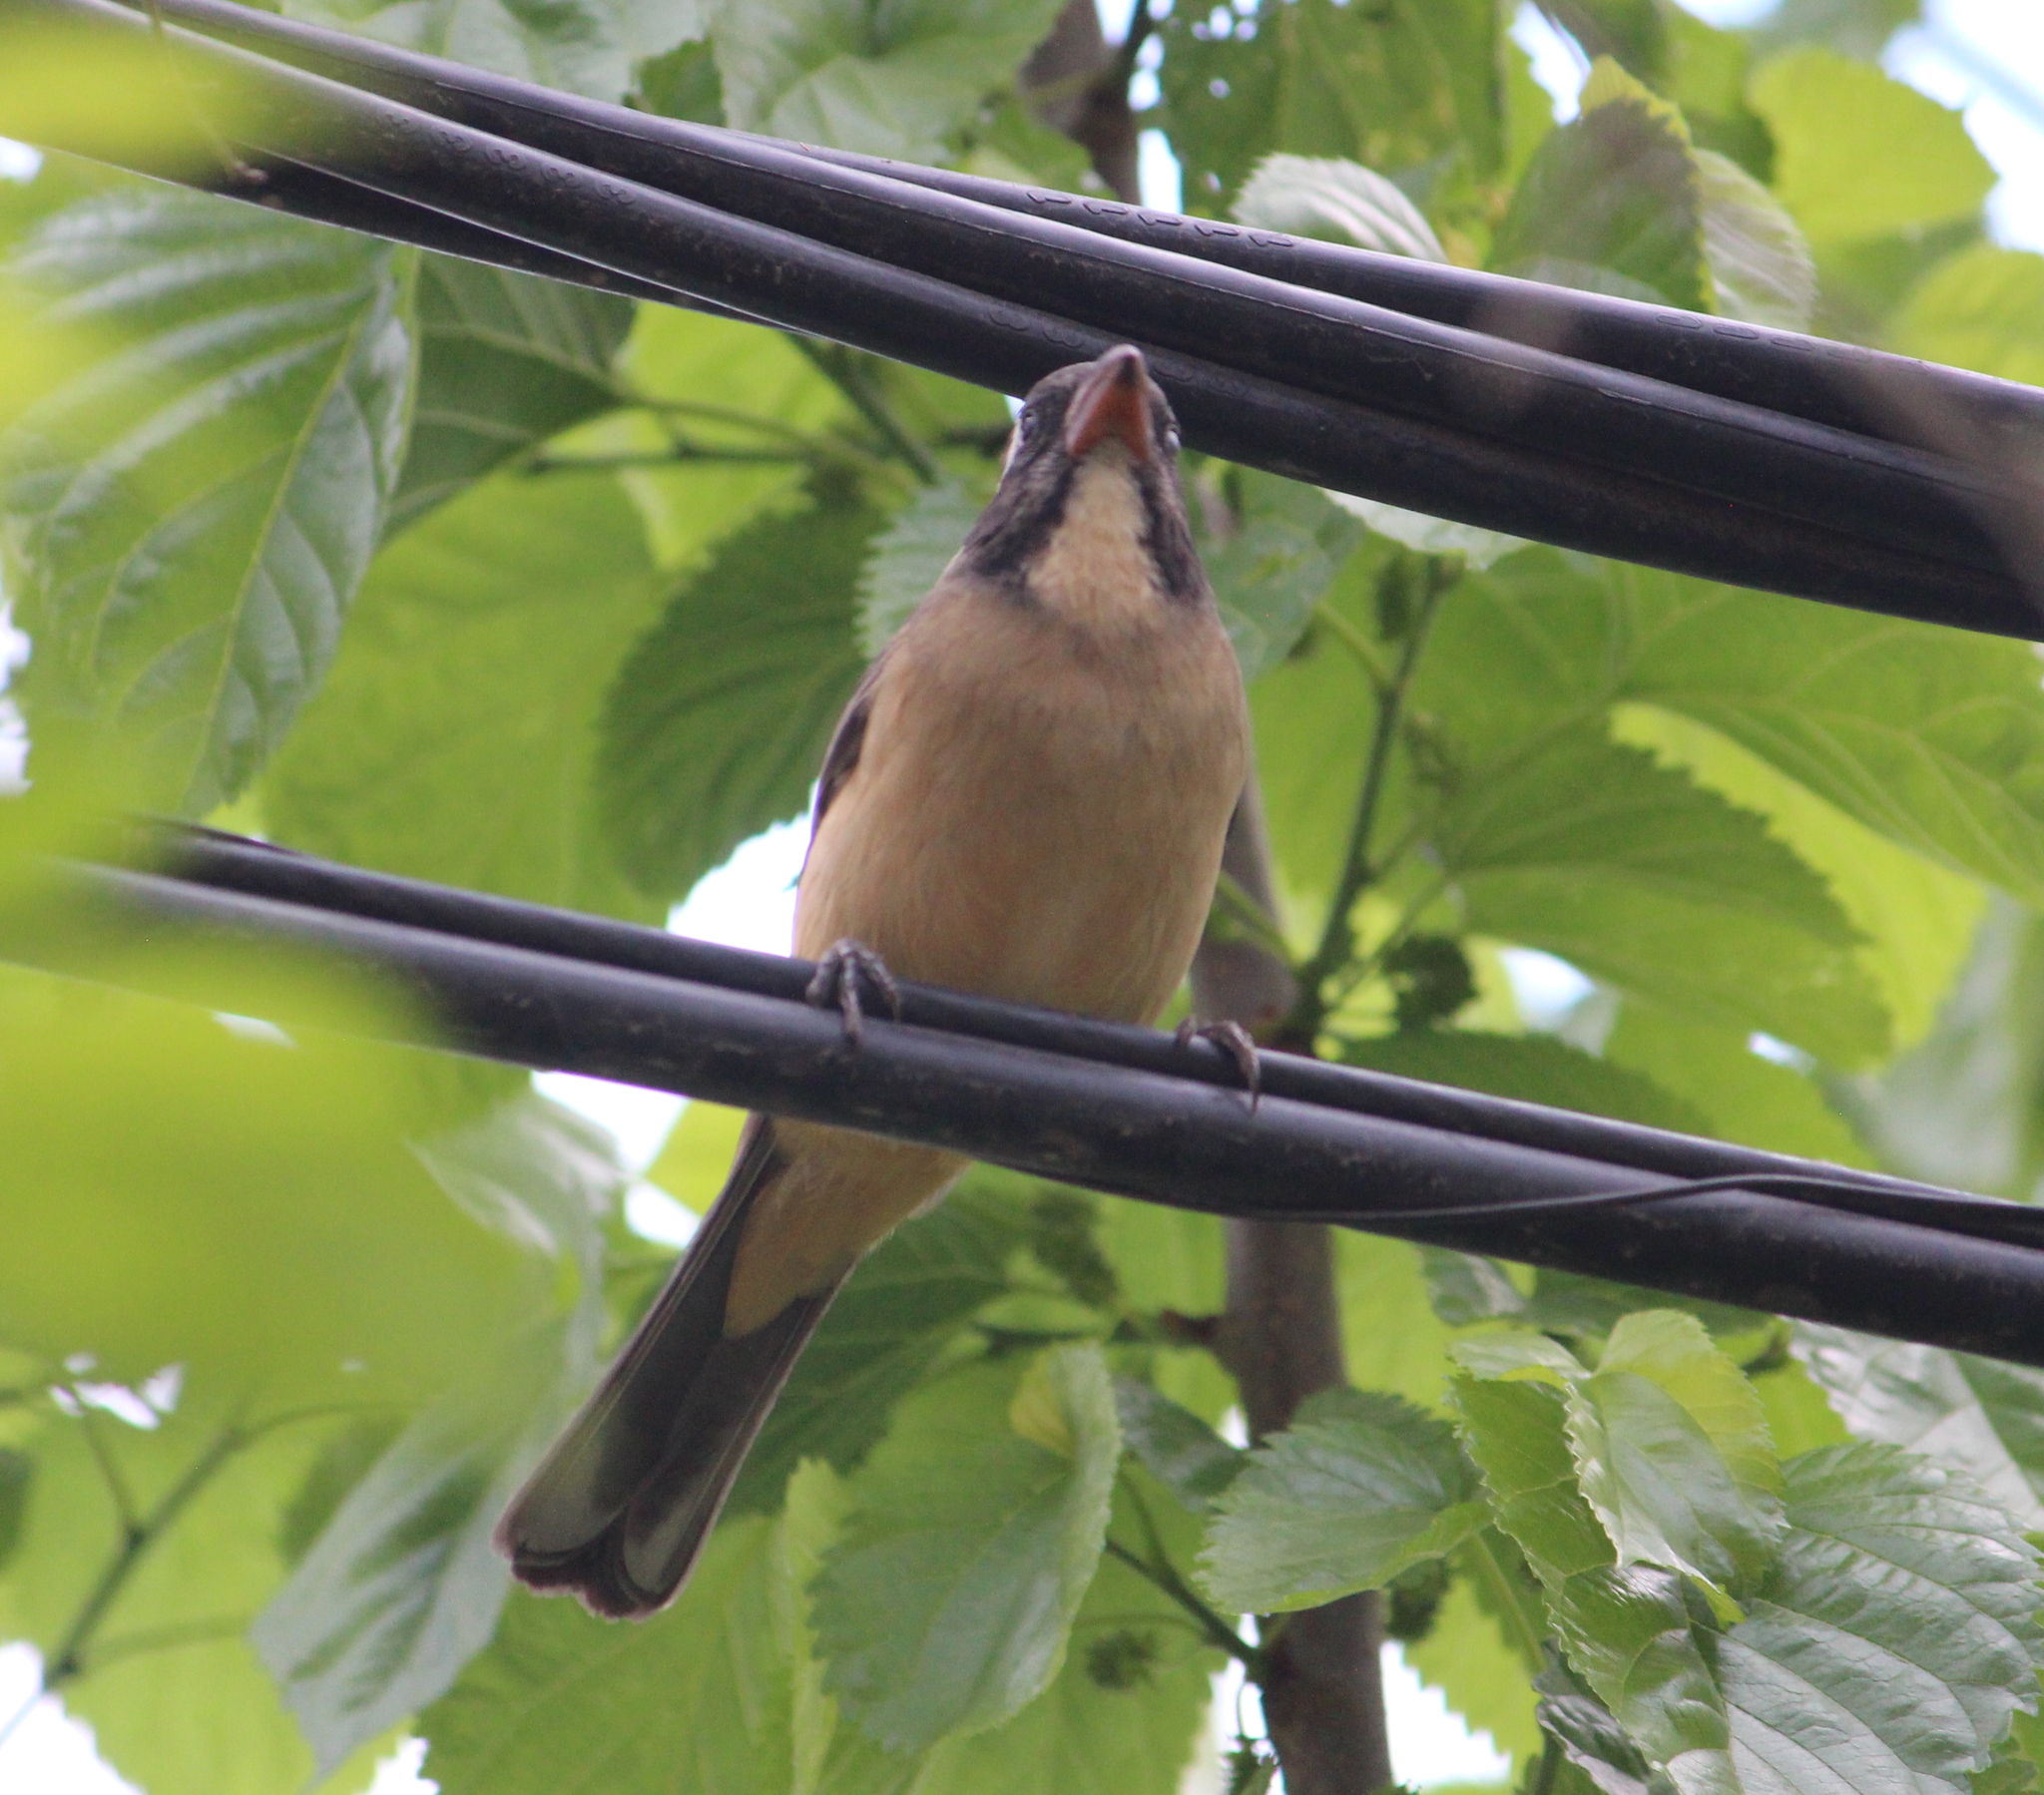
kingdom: Animalia
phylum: Chordata
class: Aves
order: Passeriformes
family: Thraupidae
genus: Saltator
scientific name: Saltator aurantiirostris
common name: Golden-billed saltator
